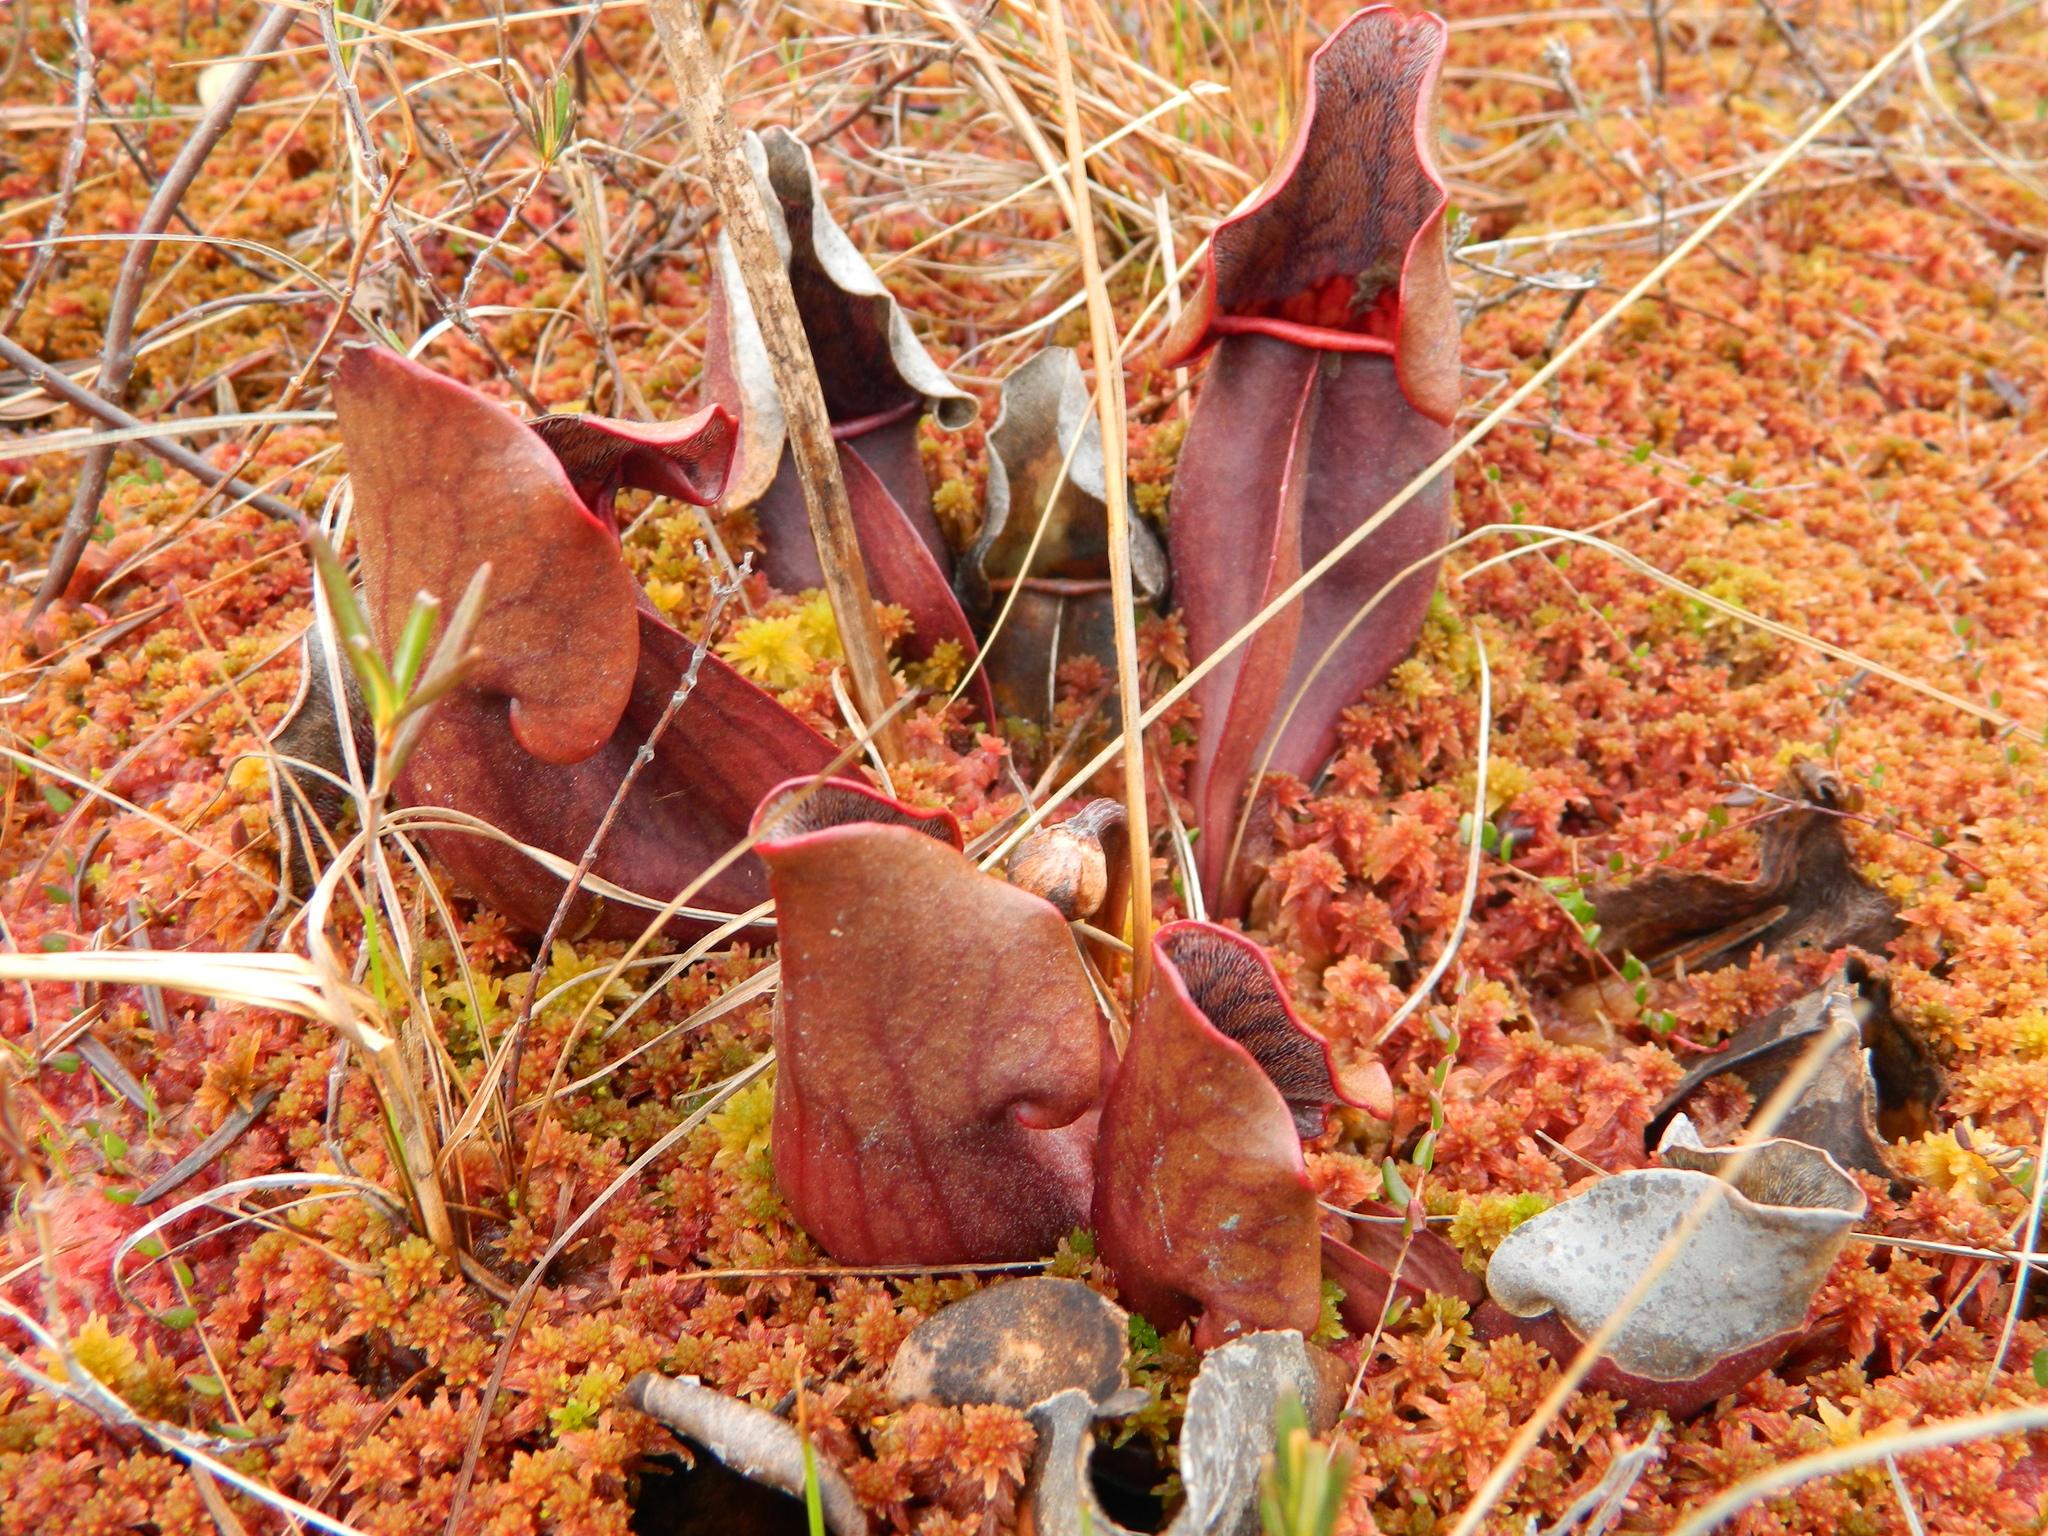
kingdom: Plantae
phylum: Tracheophyta
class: Magnoliopsida
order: Ericales
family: Sarraceniaceae
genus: Sarracenia
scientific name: Sarracenia purpurea
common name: Pitcherplant
